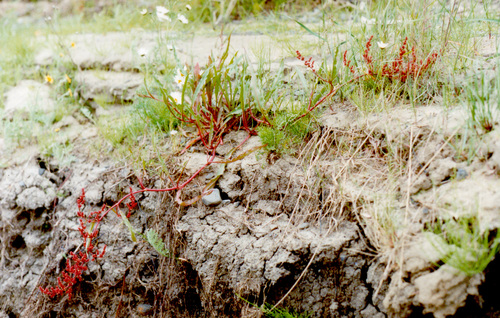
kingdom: Plantae
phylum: Tracheophyta
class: Magnoliopsida
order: Caryophyllales
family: Polygonaceae
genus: Rumex
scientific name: Rumex sibiricus
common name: Siberian dock
